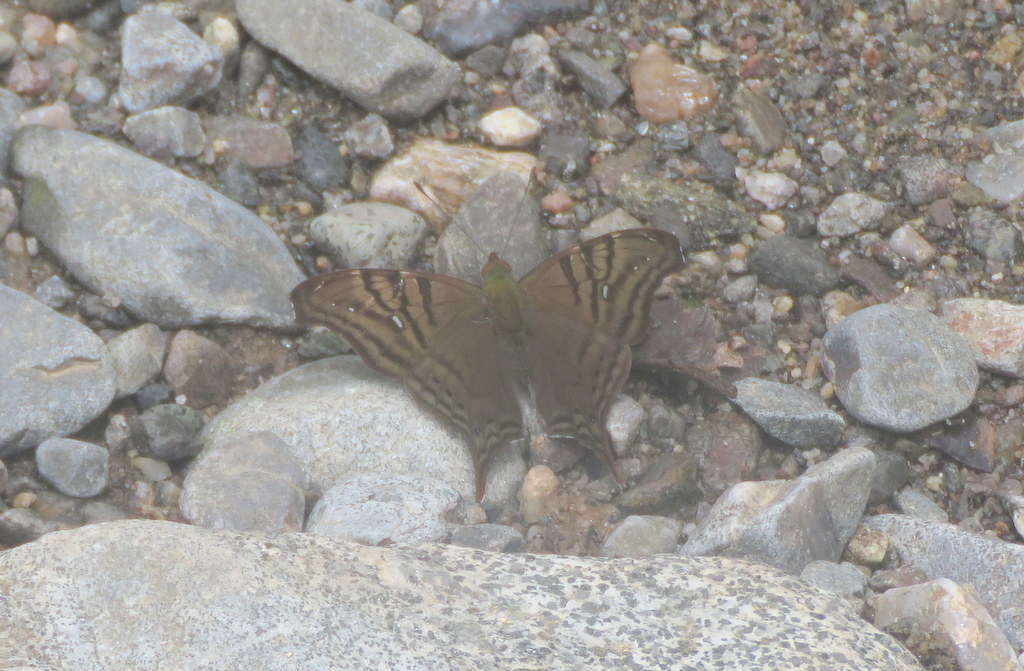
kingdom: Animalia
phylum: Arthropoda
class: Insecta
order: Lepidoptera
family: Nymphalidae
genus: Hypanartia
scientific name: Hypanartia dione
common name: Banded mapwing
